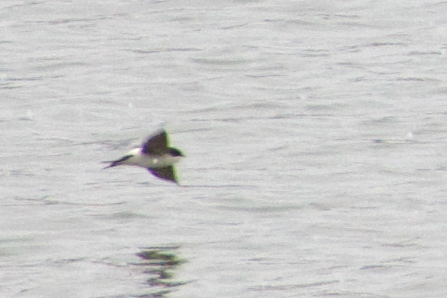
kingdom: Animalia
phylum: Chordata
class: Aves
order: Passeriformes
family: Hirundinidae
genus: Delichon
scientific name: Delichon urbicum
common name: Common house martin
